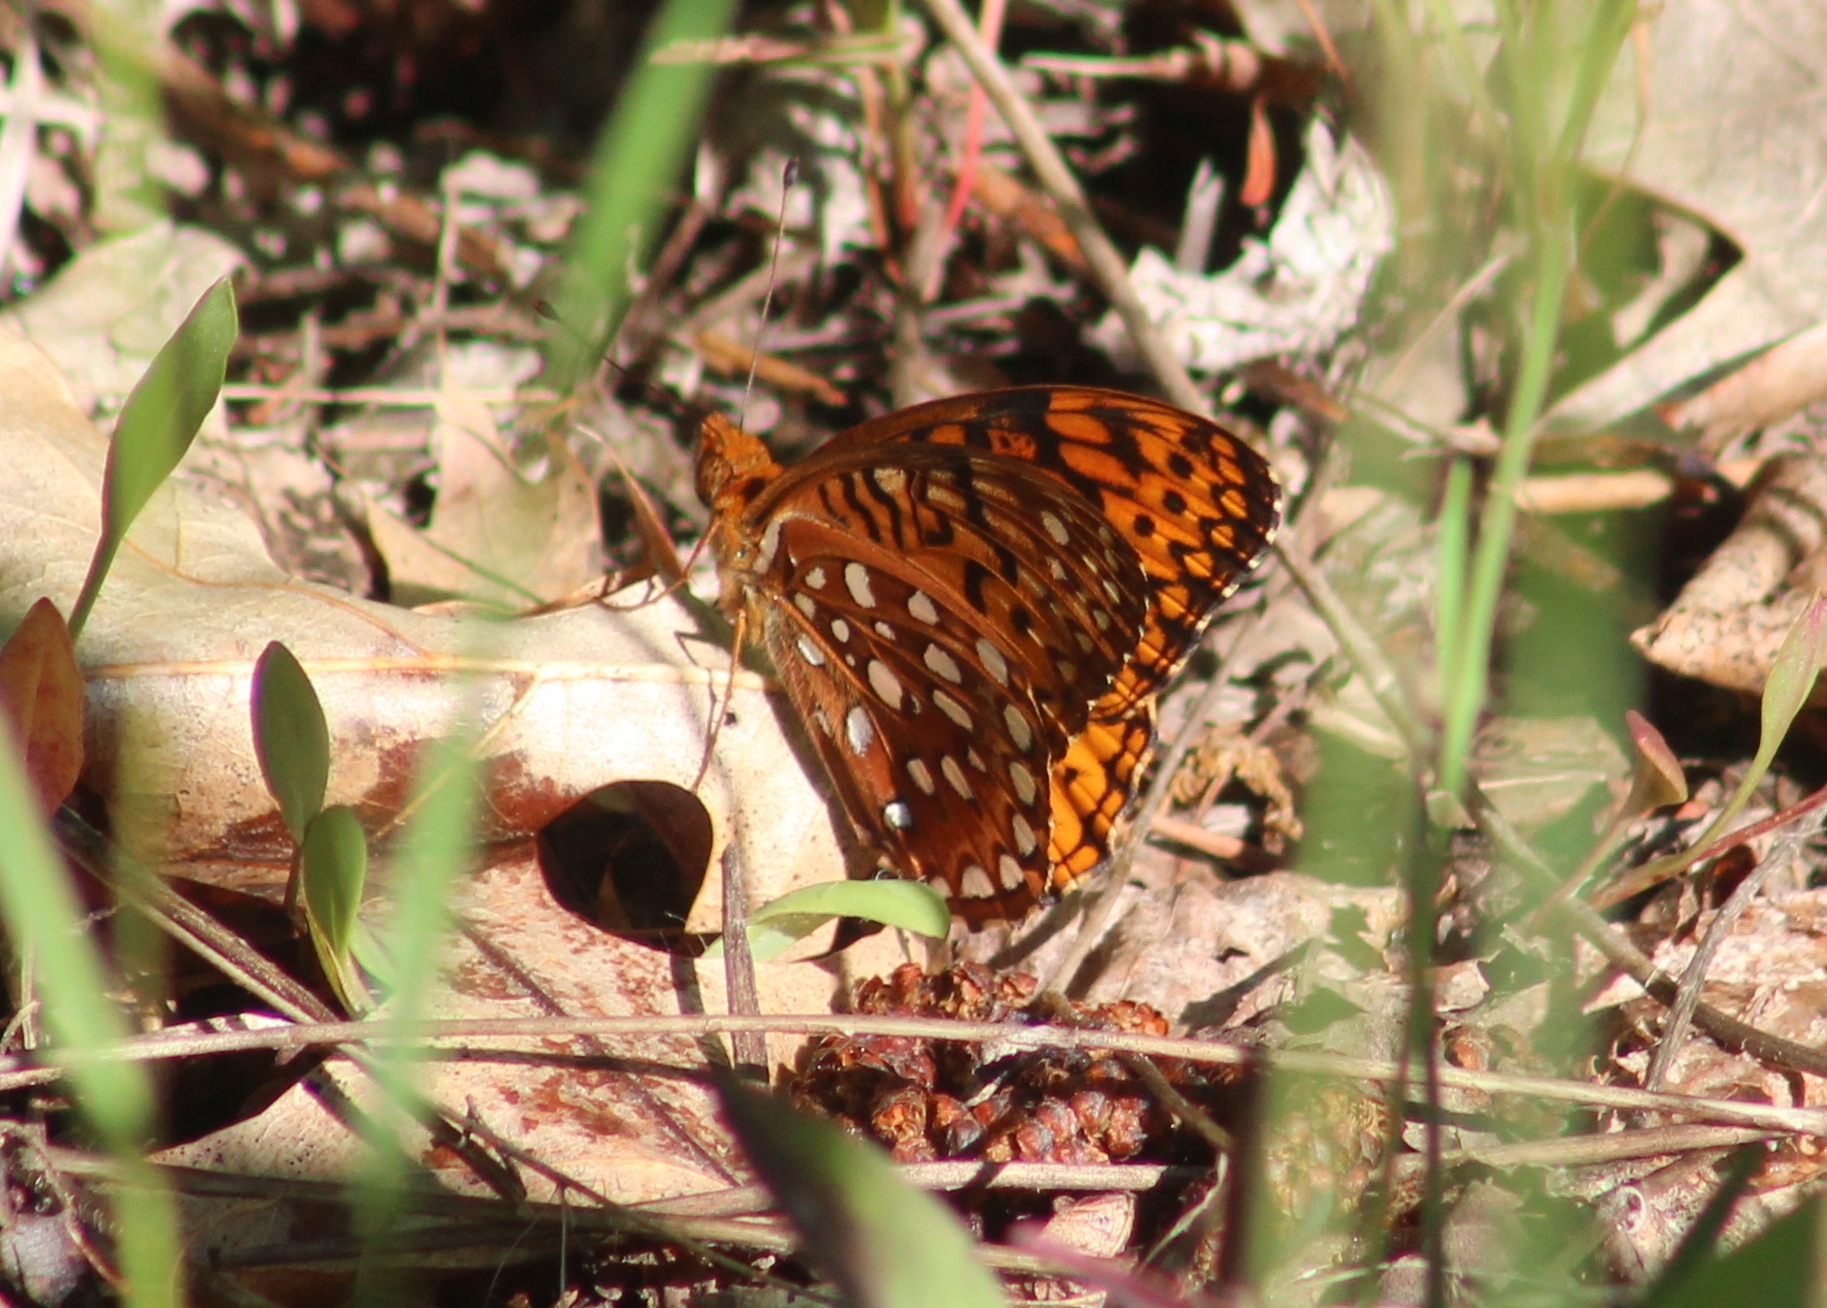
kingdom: Animalia
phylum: Arthropoda
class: Insecta
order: Lepidoptera
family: Nymphalidae
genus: Speyeria
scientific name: Speyeria aphrodite
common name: Aphrodite friitllary
